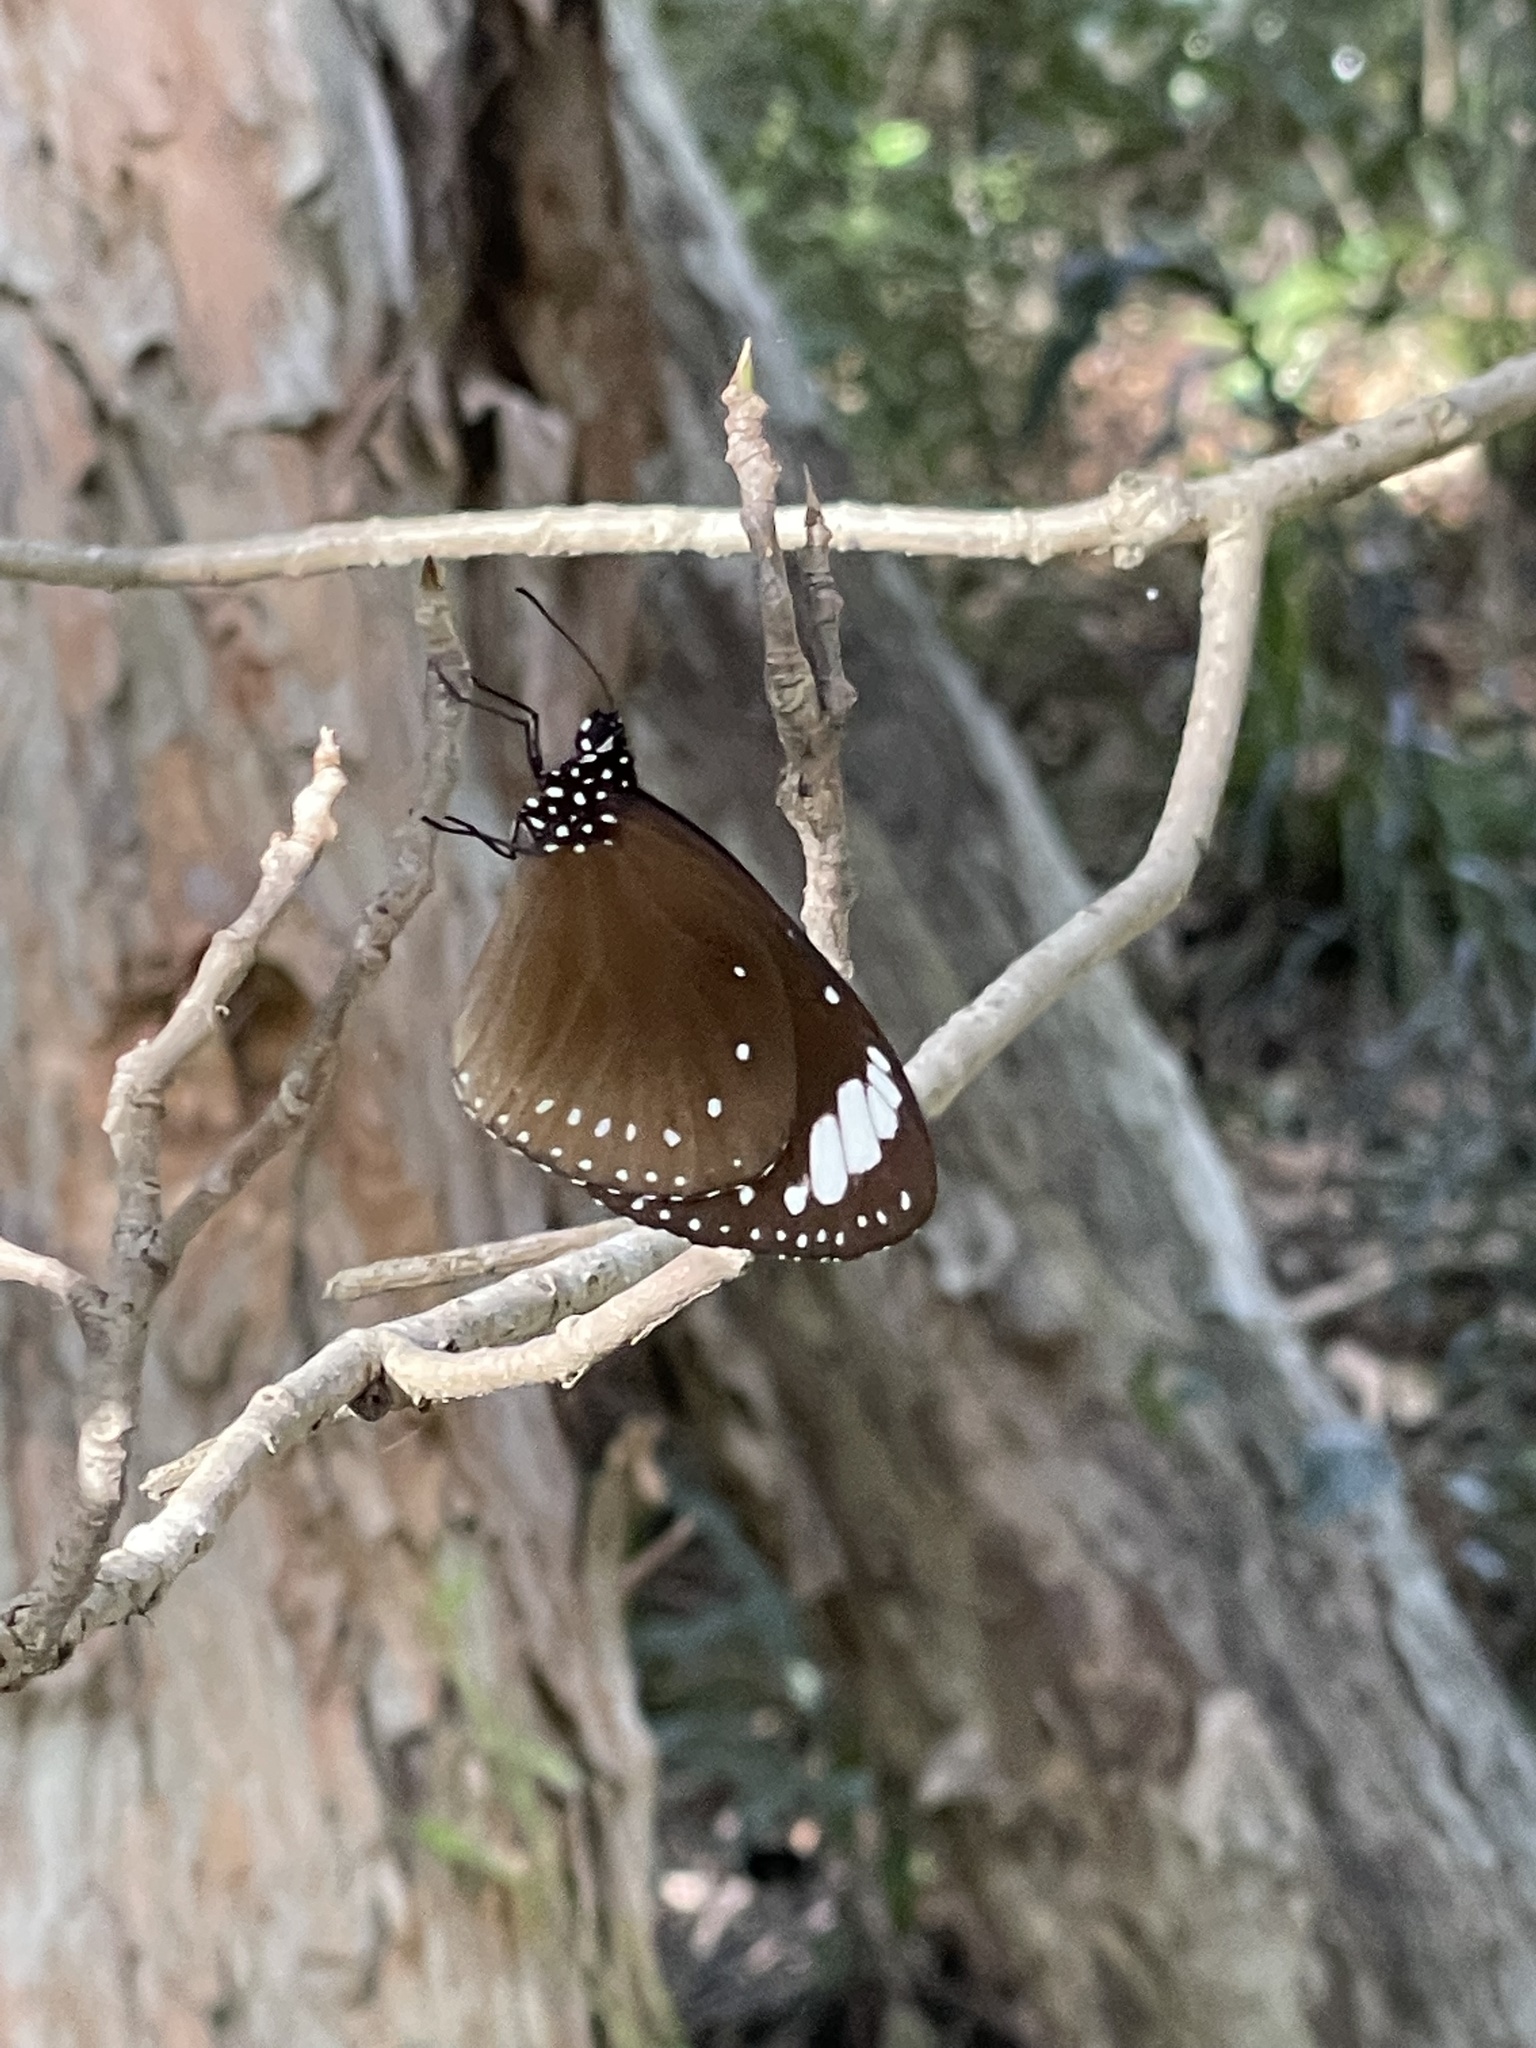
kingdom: Animalia
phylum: Arthropoda
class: Insecta
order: Lepidoptera
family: Nymphalidae
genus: Euploea
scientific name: Euploea tulliolus
